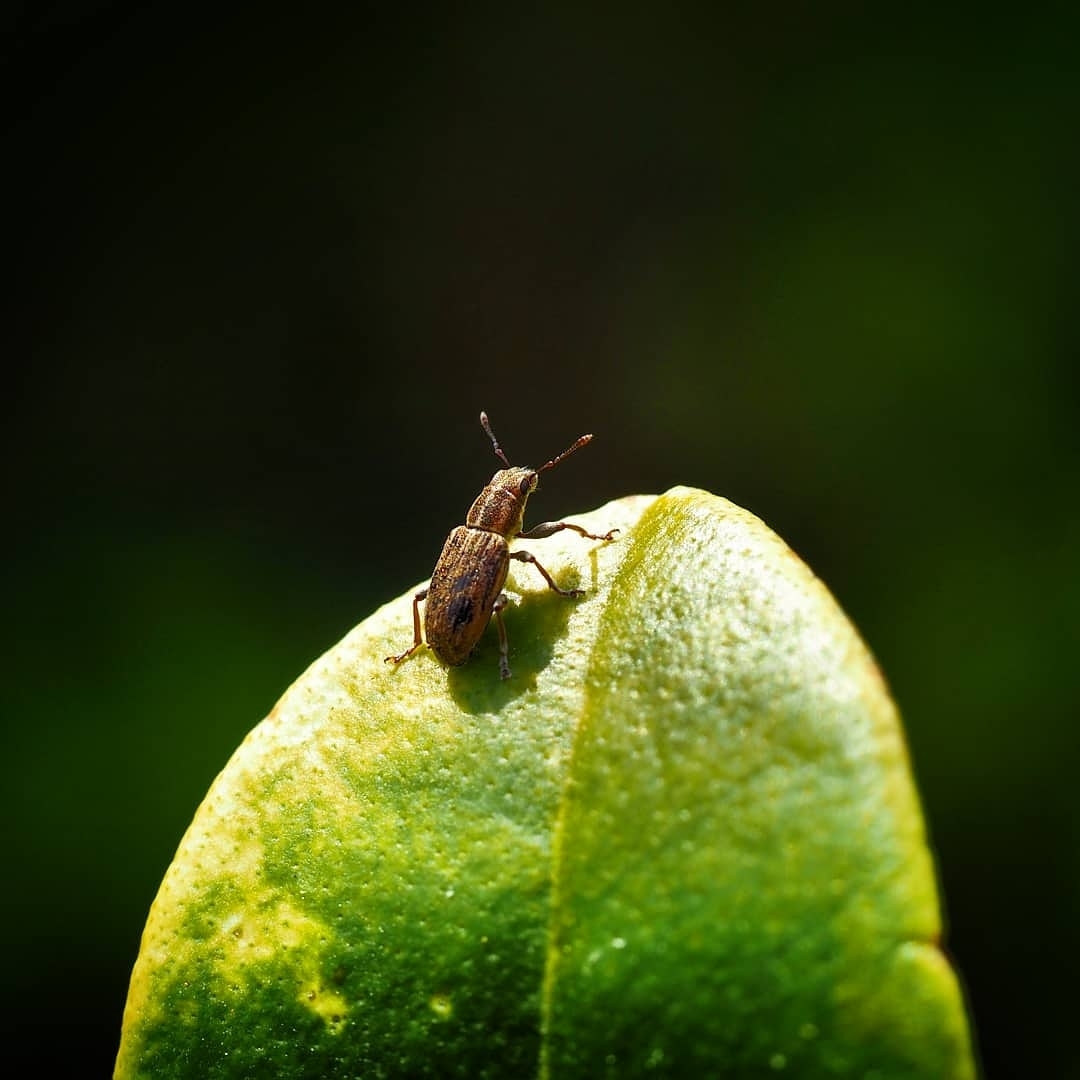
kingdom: Animalia
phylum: Arthropoda
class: Insecta
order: Coleoptera
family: Curculionidae
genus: Sitona
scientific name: Sitona lineatus
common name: Weevil
